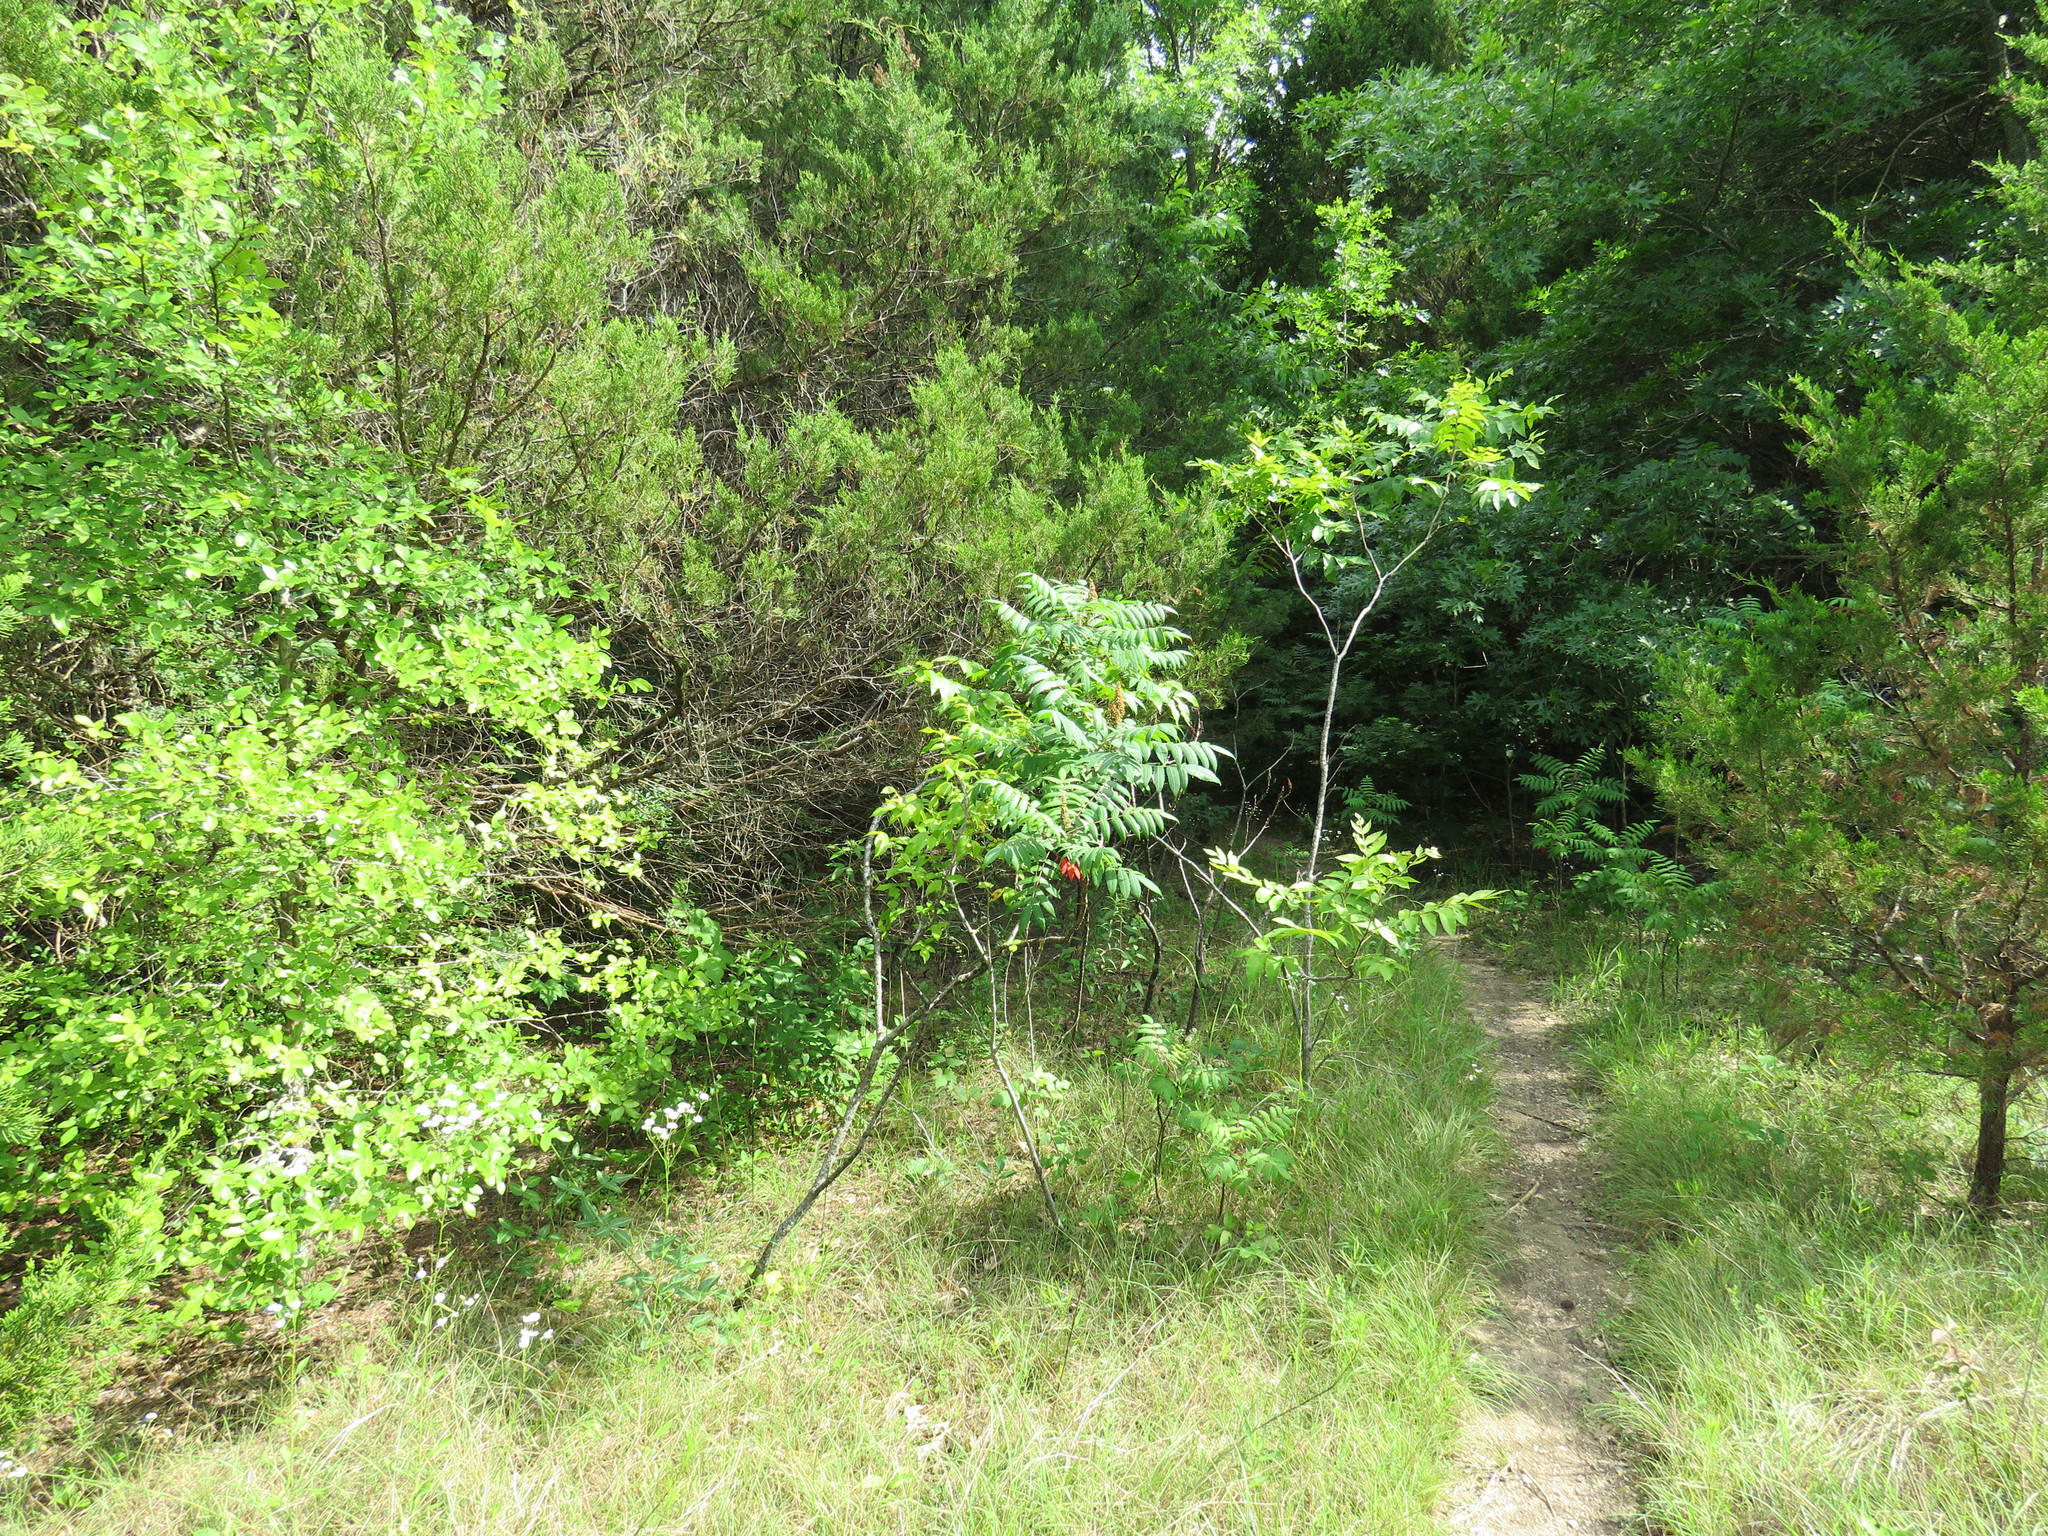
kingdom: Plantae
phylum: Tracheophyta
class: Magnoliopsida
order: Sapindales
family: Anacardiaceae
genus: Rhus
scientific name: Rhus glabra
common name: Scarlet sumac
